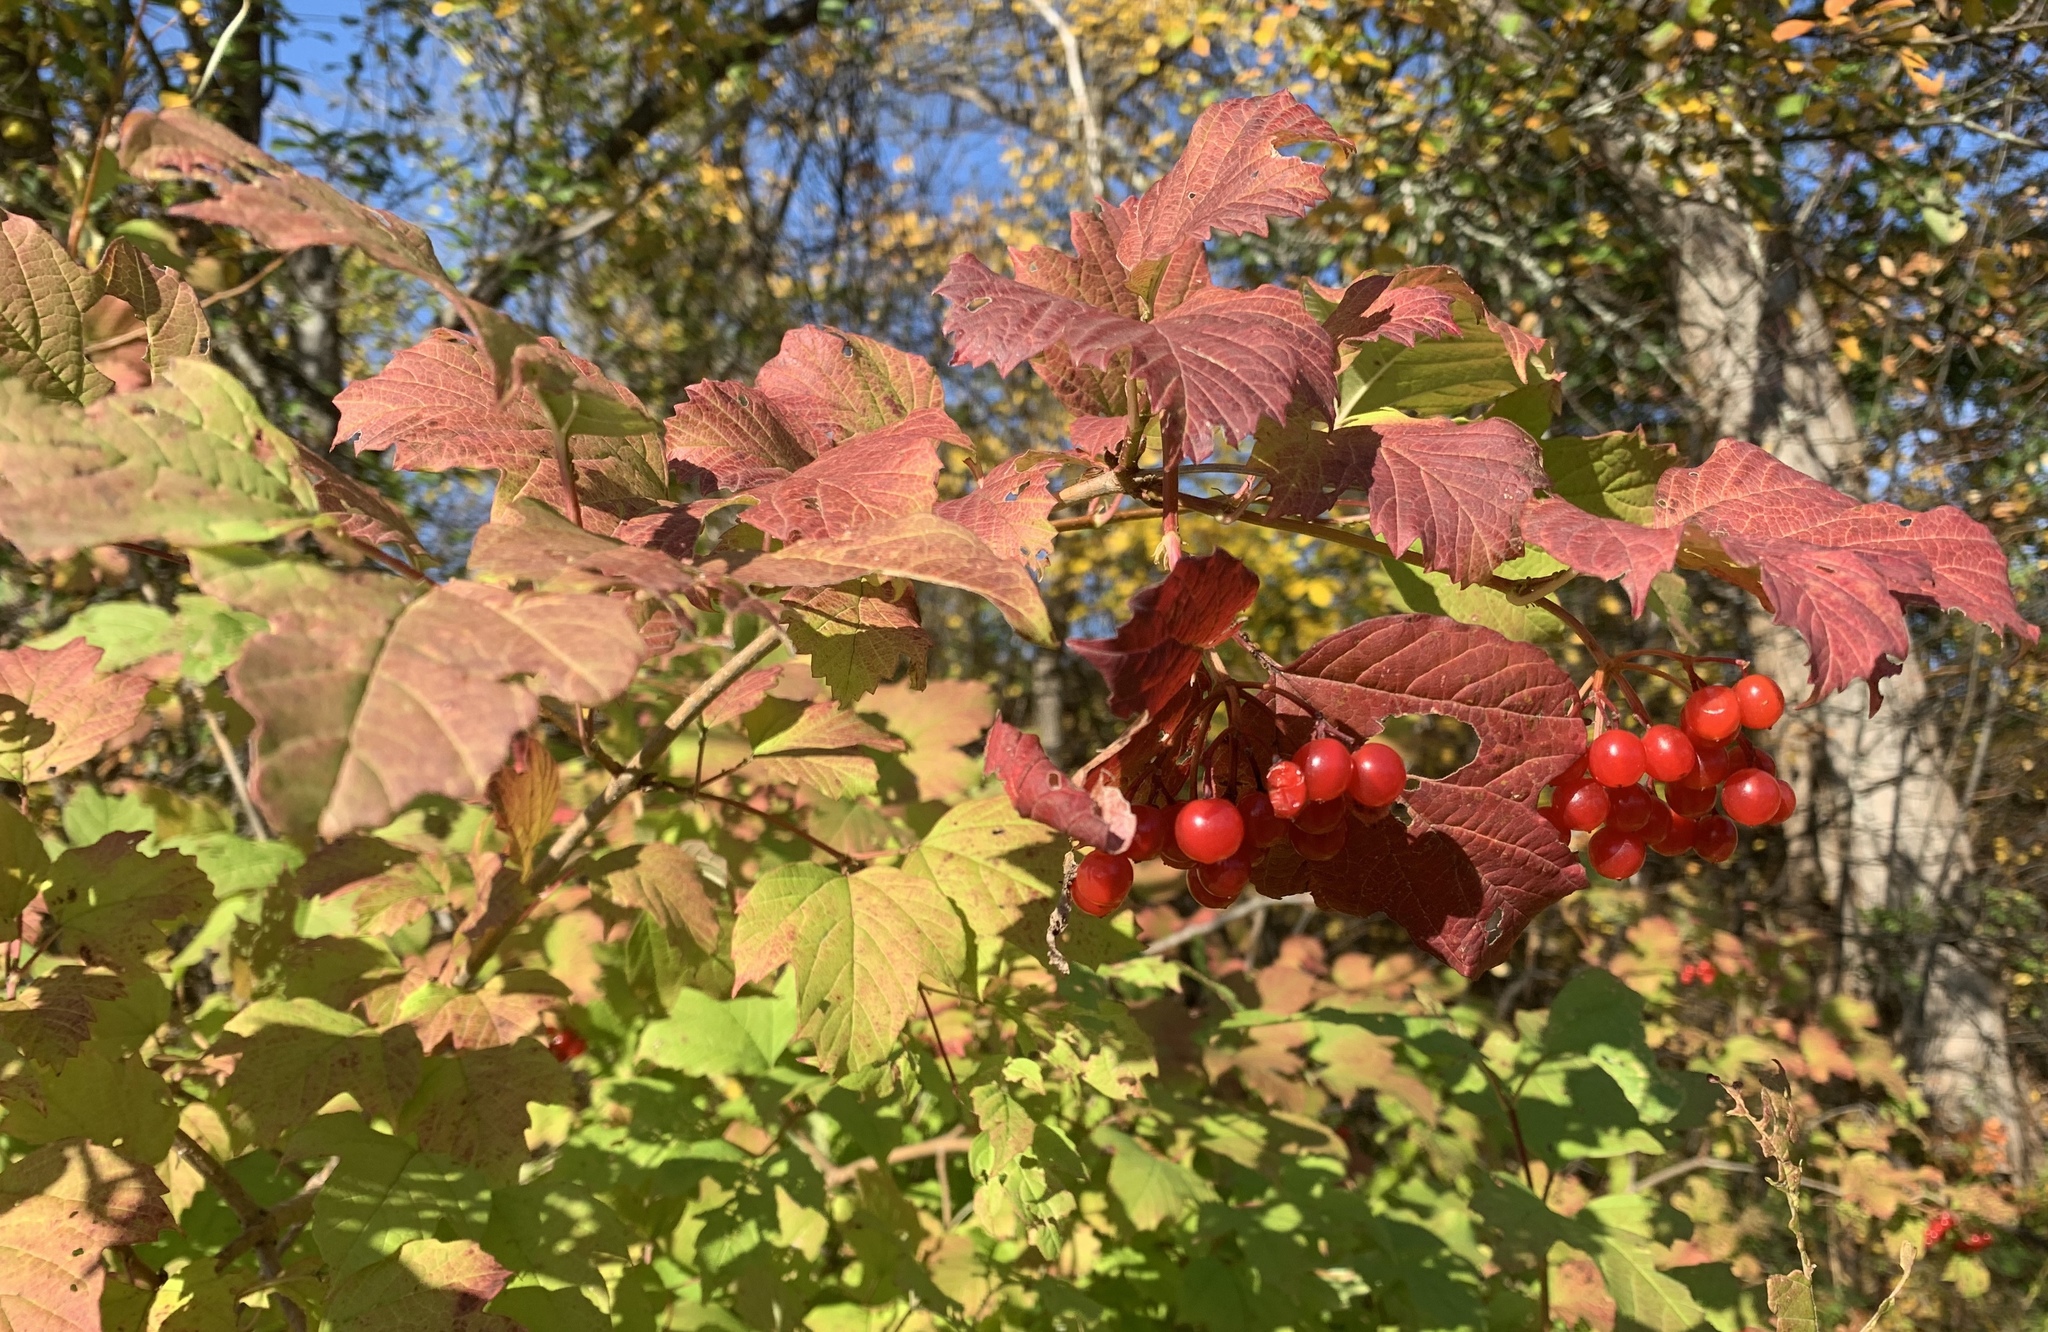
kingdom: Plantae
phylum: Tracheophyta
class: Magnoliopsida
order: Dipsacales
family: Viburnaceae
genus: Viburnum
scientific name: Viburnum opulus
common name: Guelder-rose
